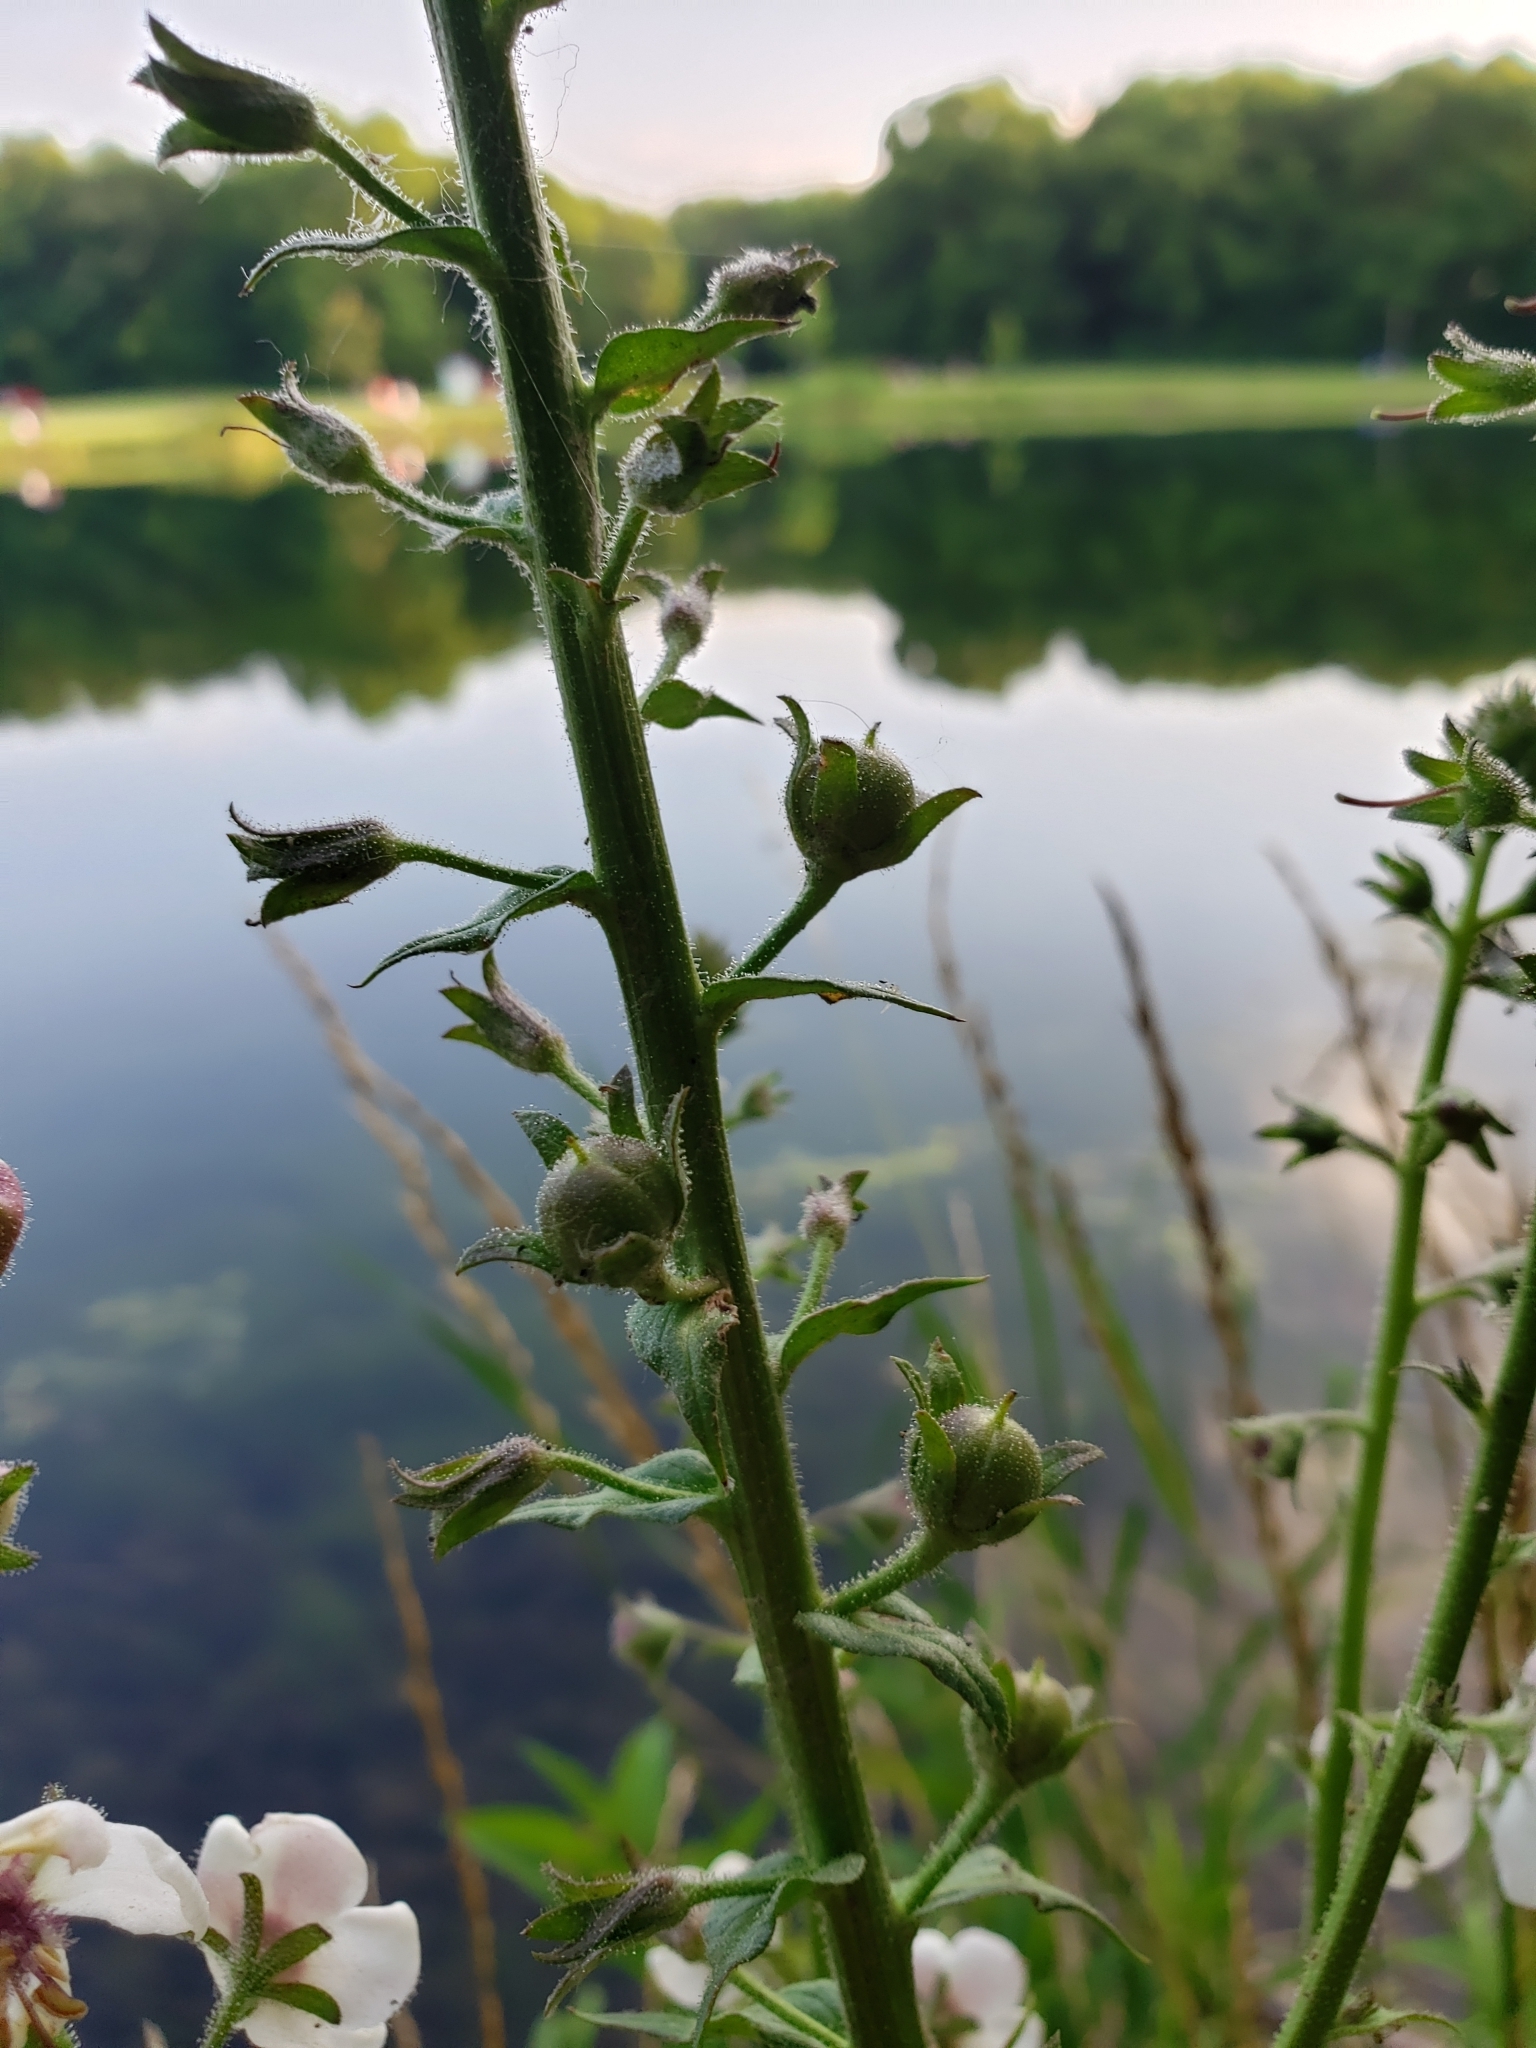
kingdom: Plantae
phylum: Tracheophyta
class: Magnoliopsida
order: Lamiales
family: Scrophulariaceae
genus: Verbascum
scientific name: Verbascum blattaria
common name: Moth mullein
